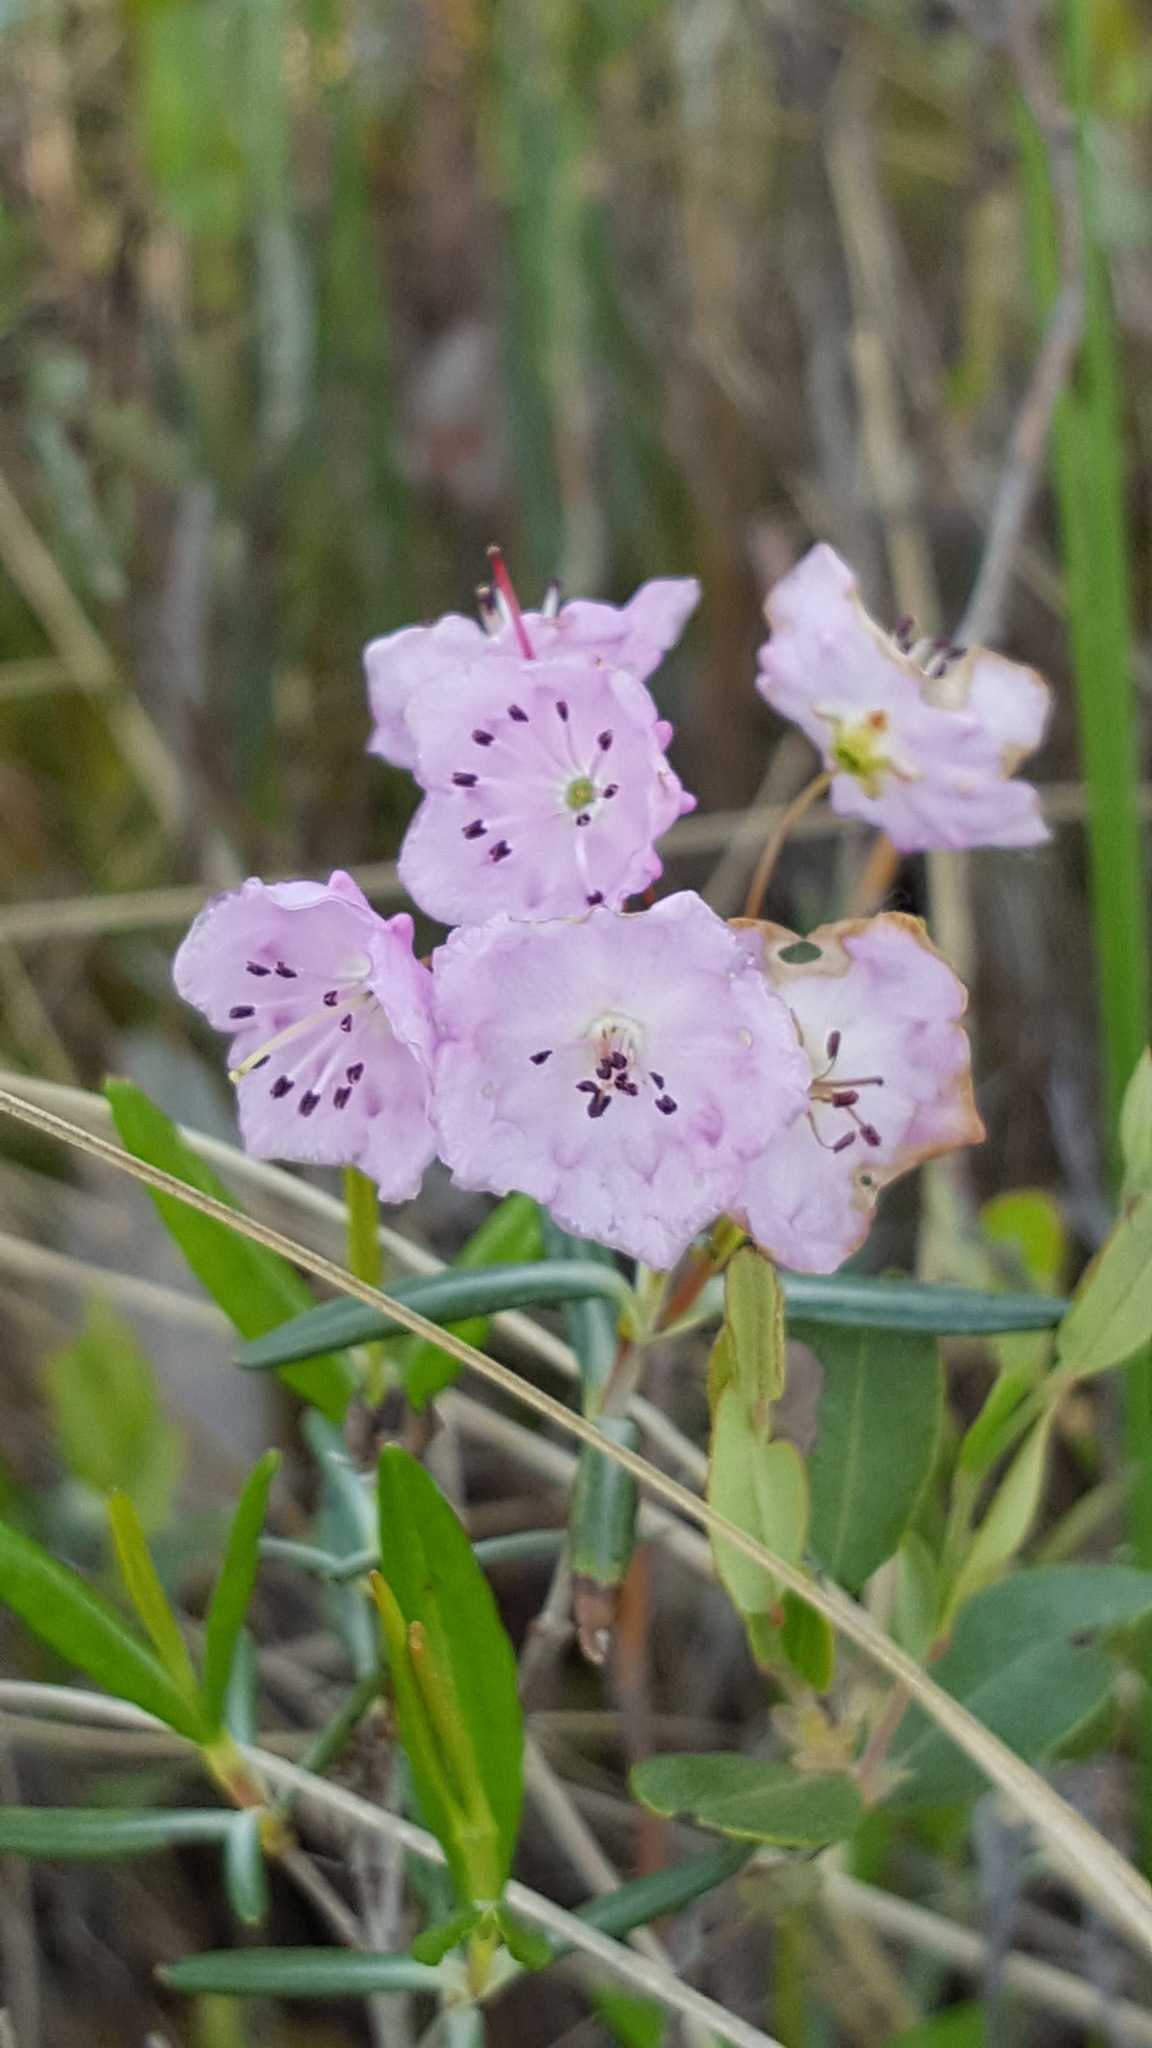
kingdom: Plantae
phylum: Tracheophyta
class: Magnoliopsida
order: Ericales
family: Ericaceae
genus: Kalmia
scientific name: Kalmia polifolia
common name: Bog-laurel
